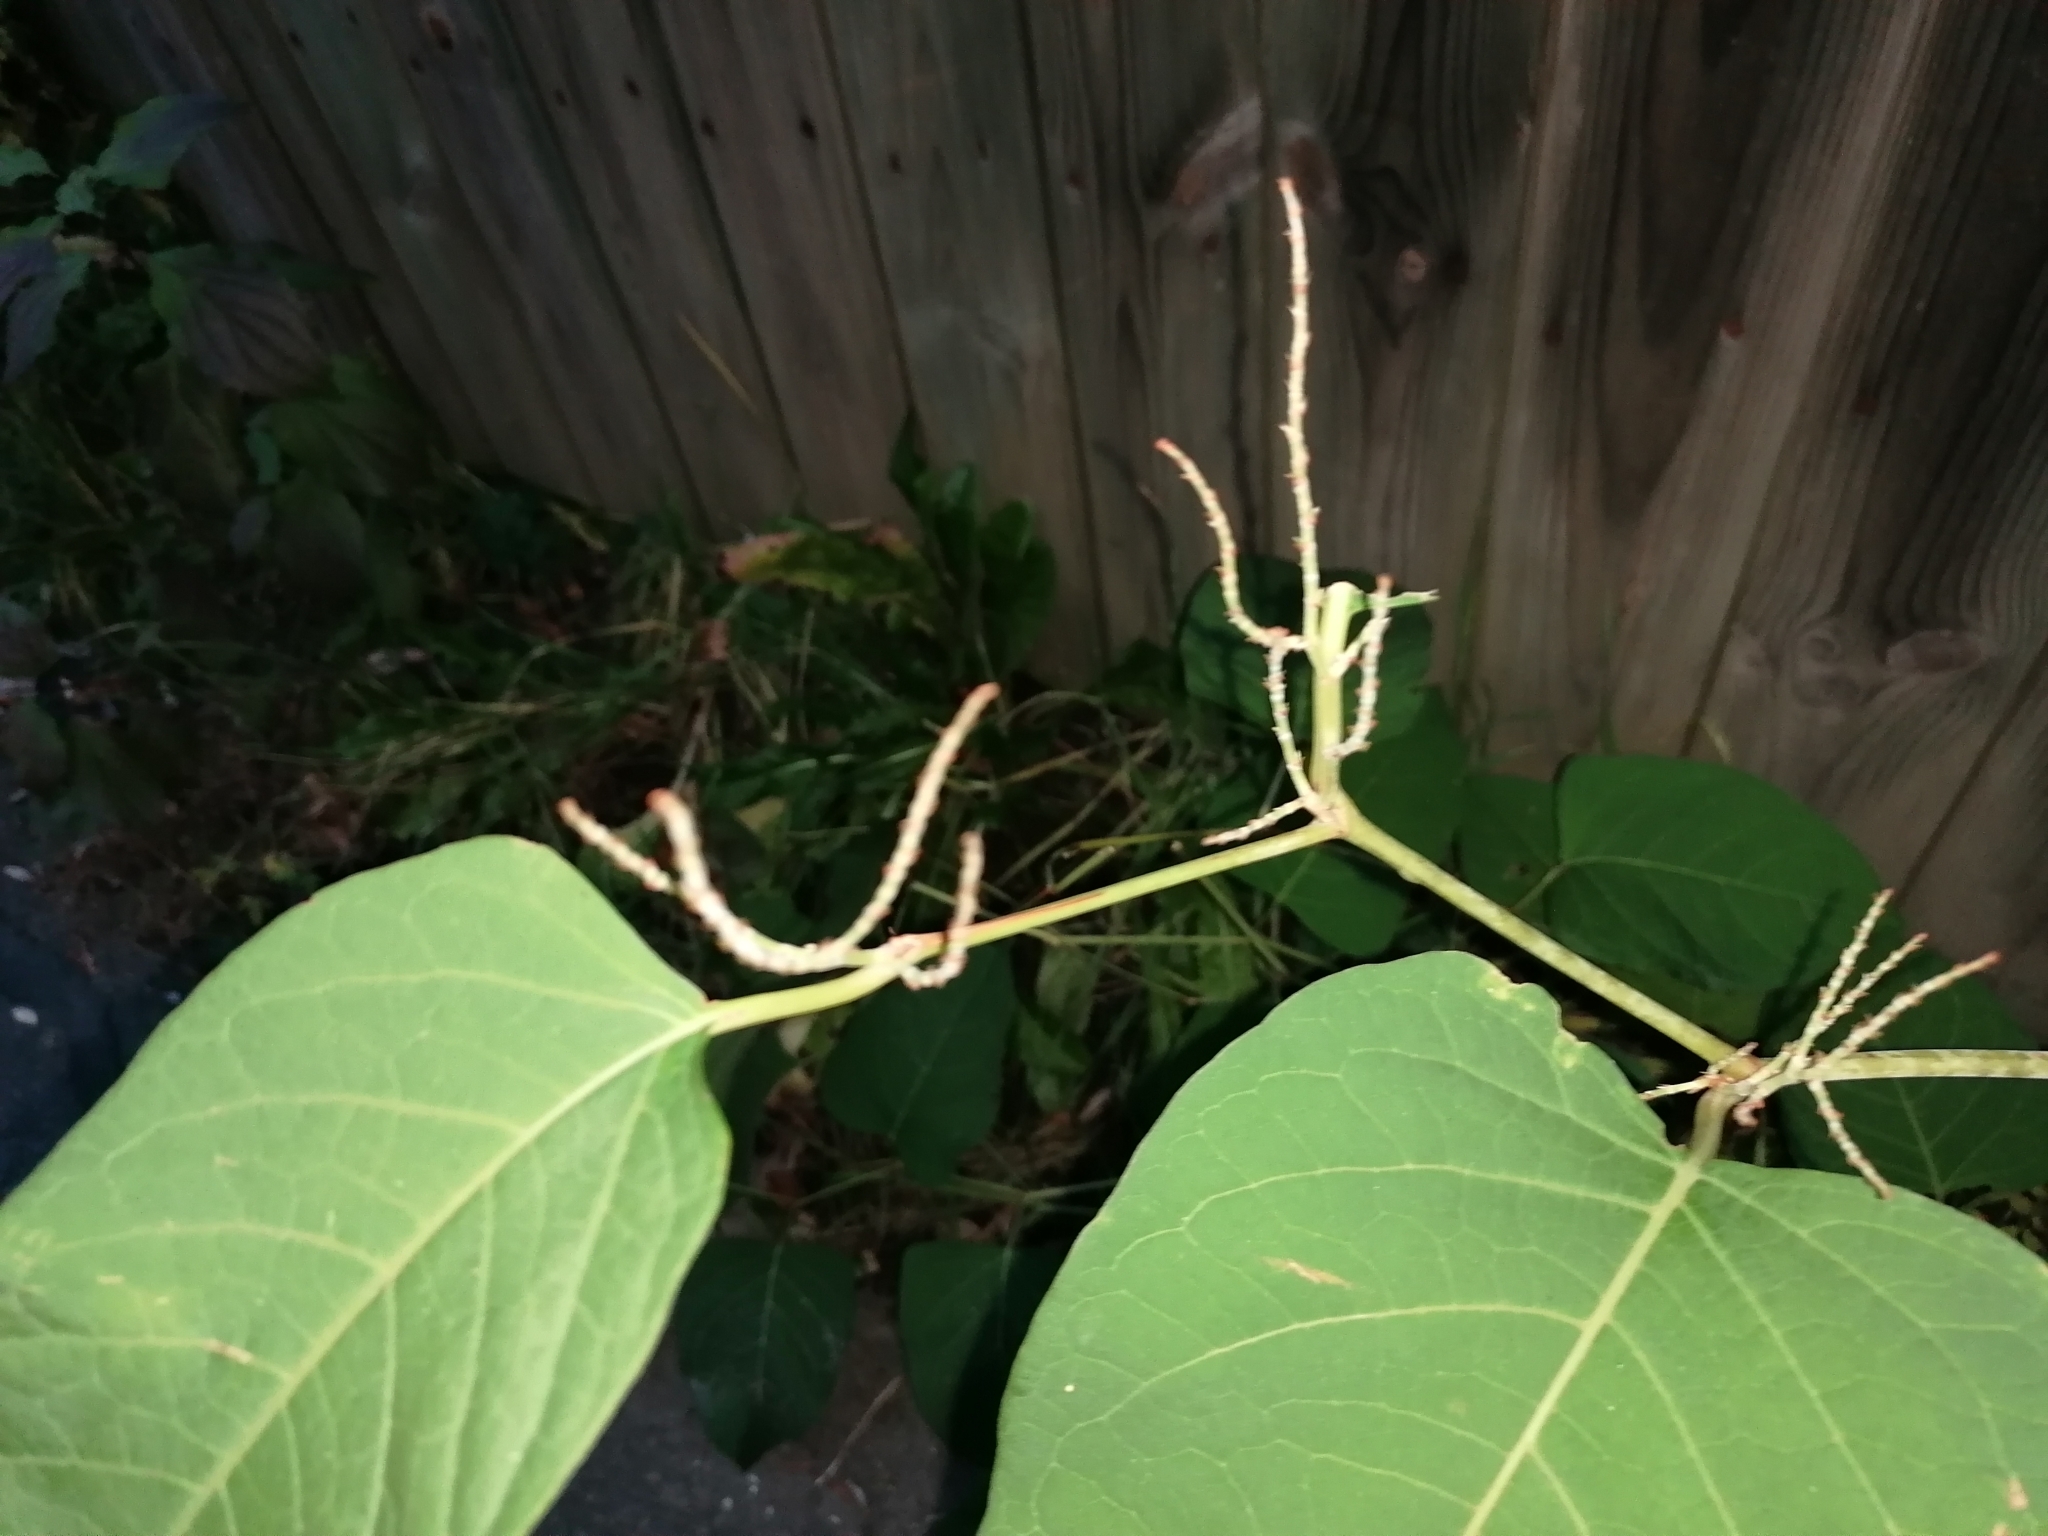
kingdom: Plantae
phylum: Tracheophyta
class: Magnoliopsida
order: Caryophyllales
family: Polygonaceae
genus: Reynoutria
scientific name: Reynoutria bohemica
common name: Bohemian knotweed
